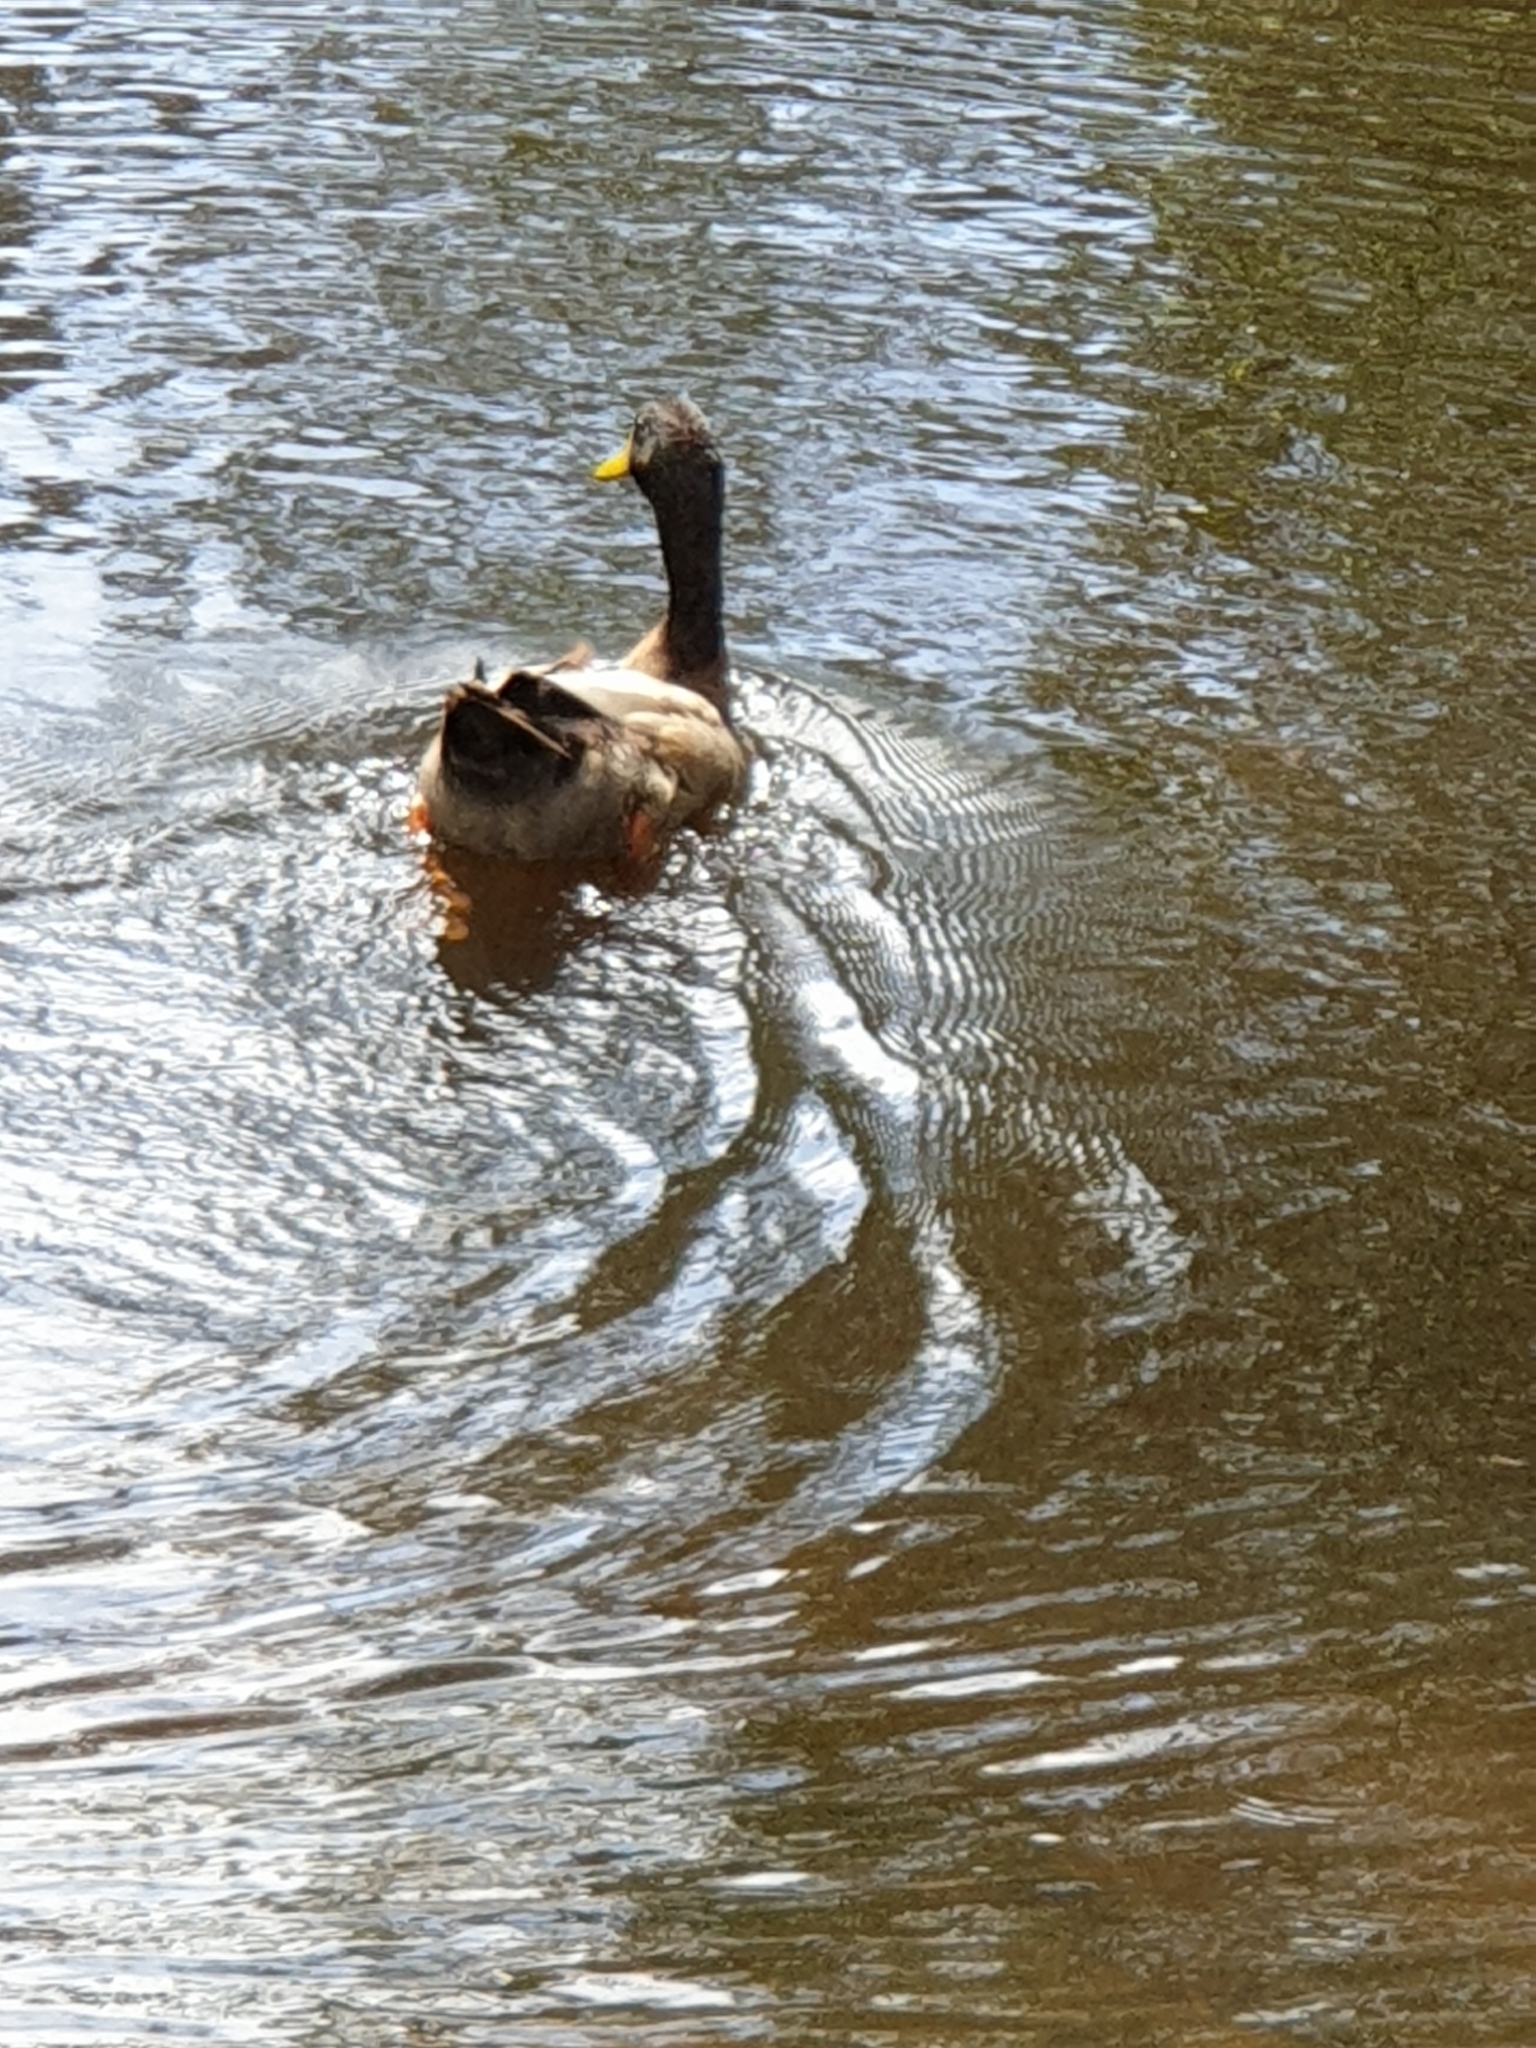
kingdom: Animalia
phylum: Chordata
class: Aves
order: Anseriformes
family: Anatidae
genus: Anas
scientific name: Anas platyrhynchos
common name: Mallard
